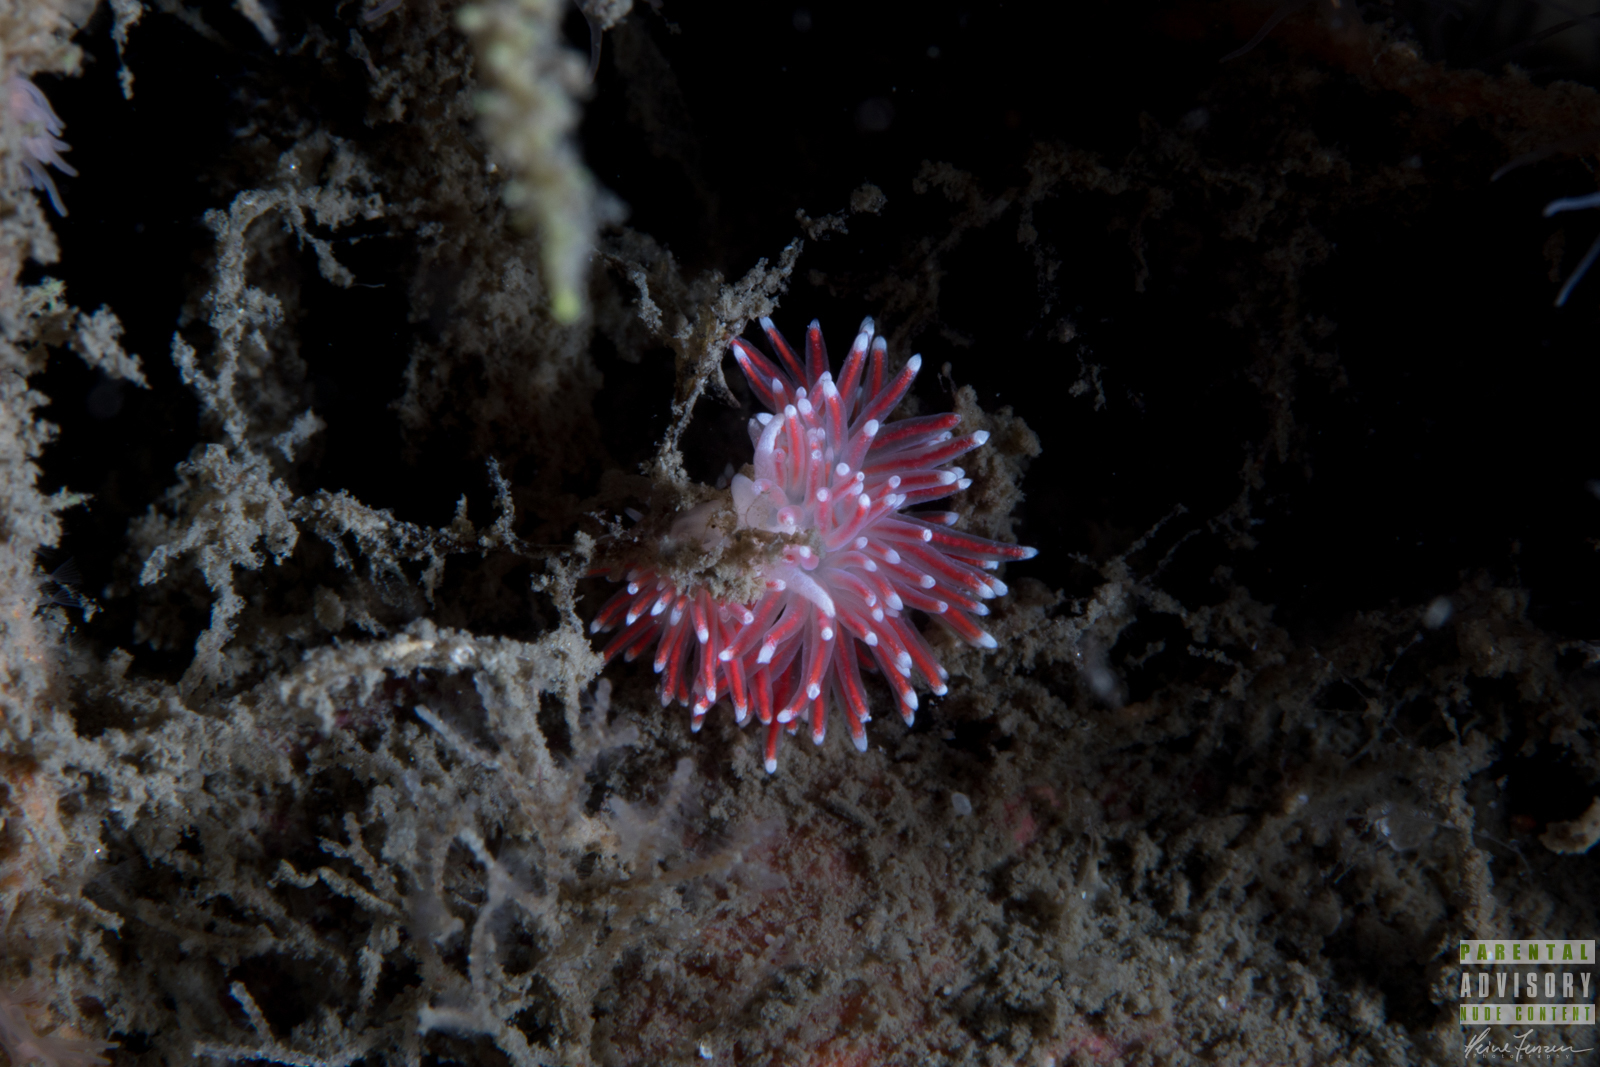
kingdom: Animalia
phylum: Mollusca
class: Gastropoda
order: Nudibranchia
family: Flabellinidae
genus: Carronella
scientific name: Carronella pellucida
